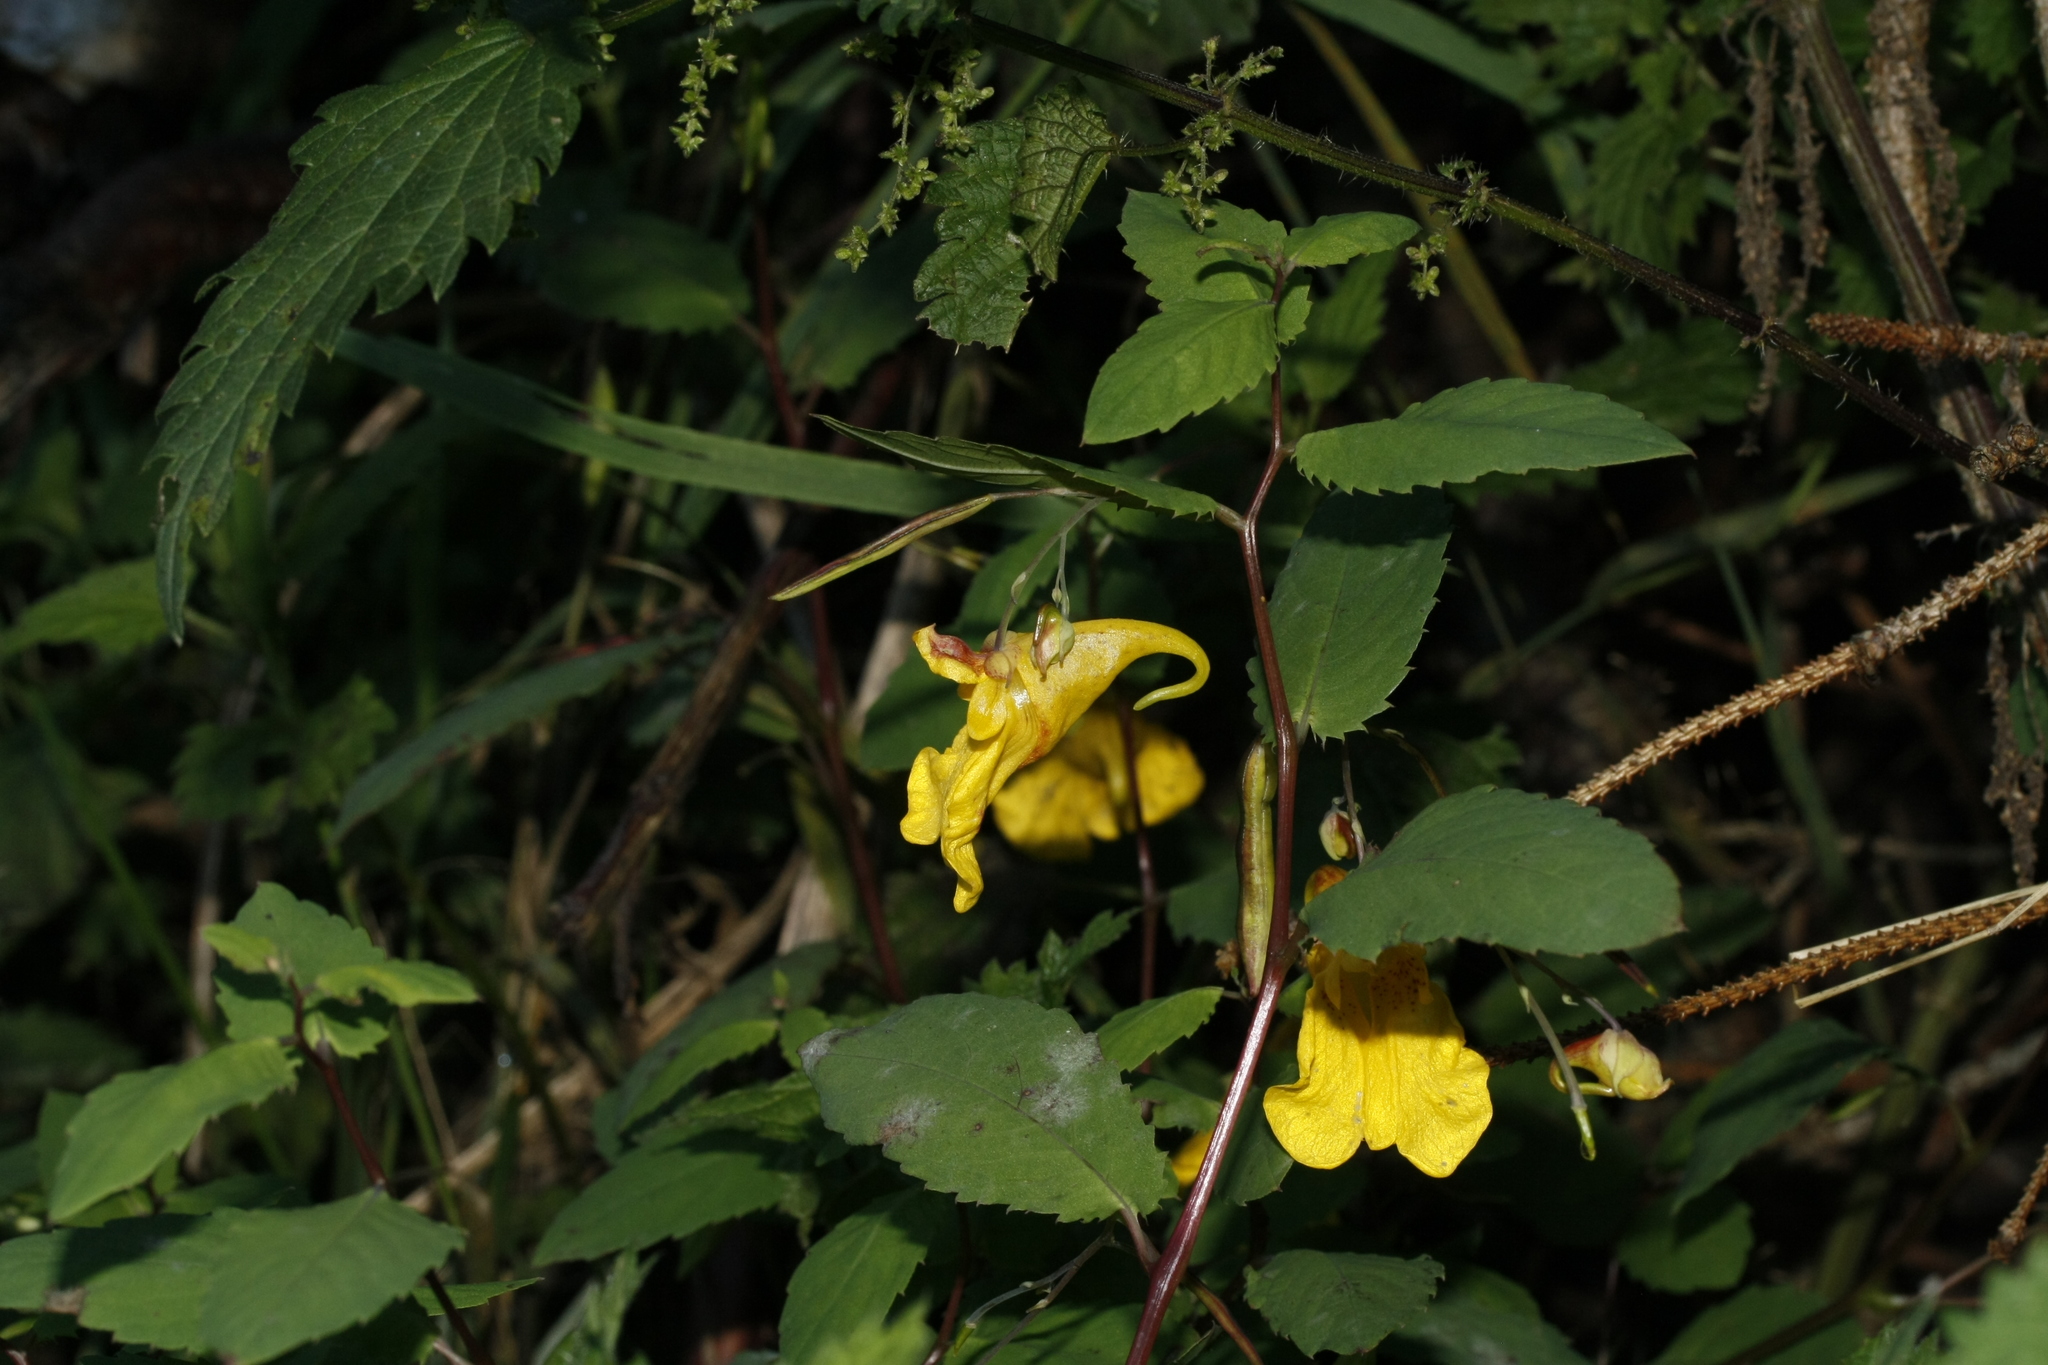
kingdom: Plantae
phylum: Tracheophyta
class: Magnoliopsida
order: Ericales
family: Balsaminaceae
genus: Impatiens
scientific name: Impatiens noli-tangere
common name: Touch-me-not balsam
